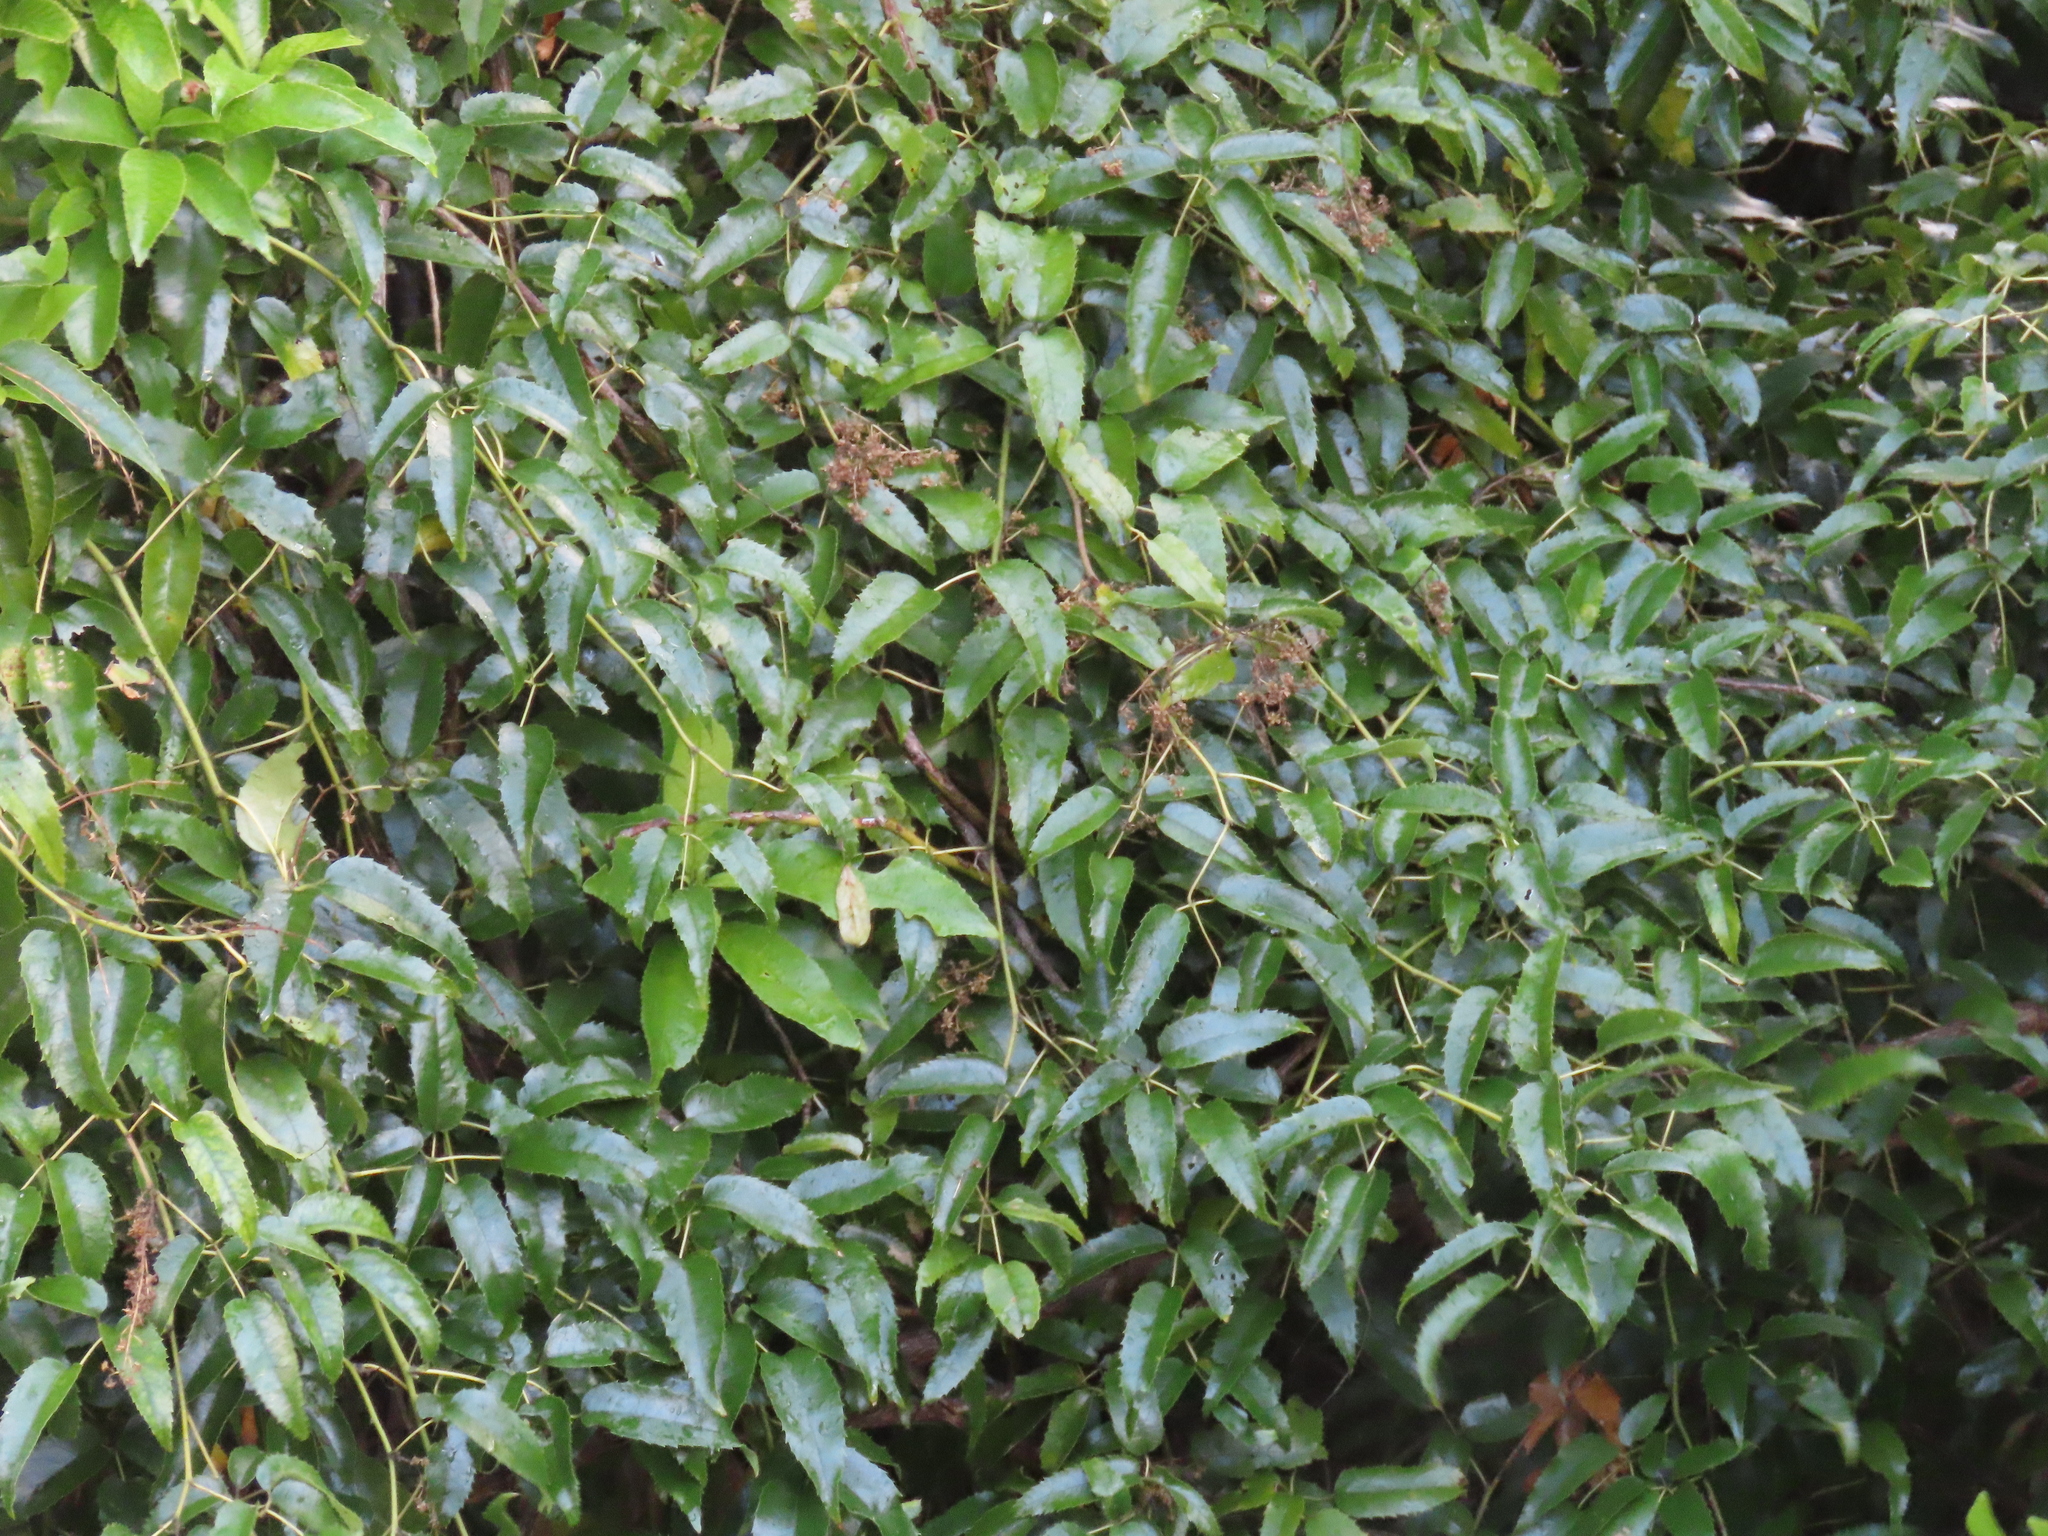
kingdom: Plantae
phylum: Tracheophyta
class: Magnoliopsida
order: Rosales
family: Rosaceae
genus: Rubus
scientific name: Rubus cissoides
